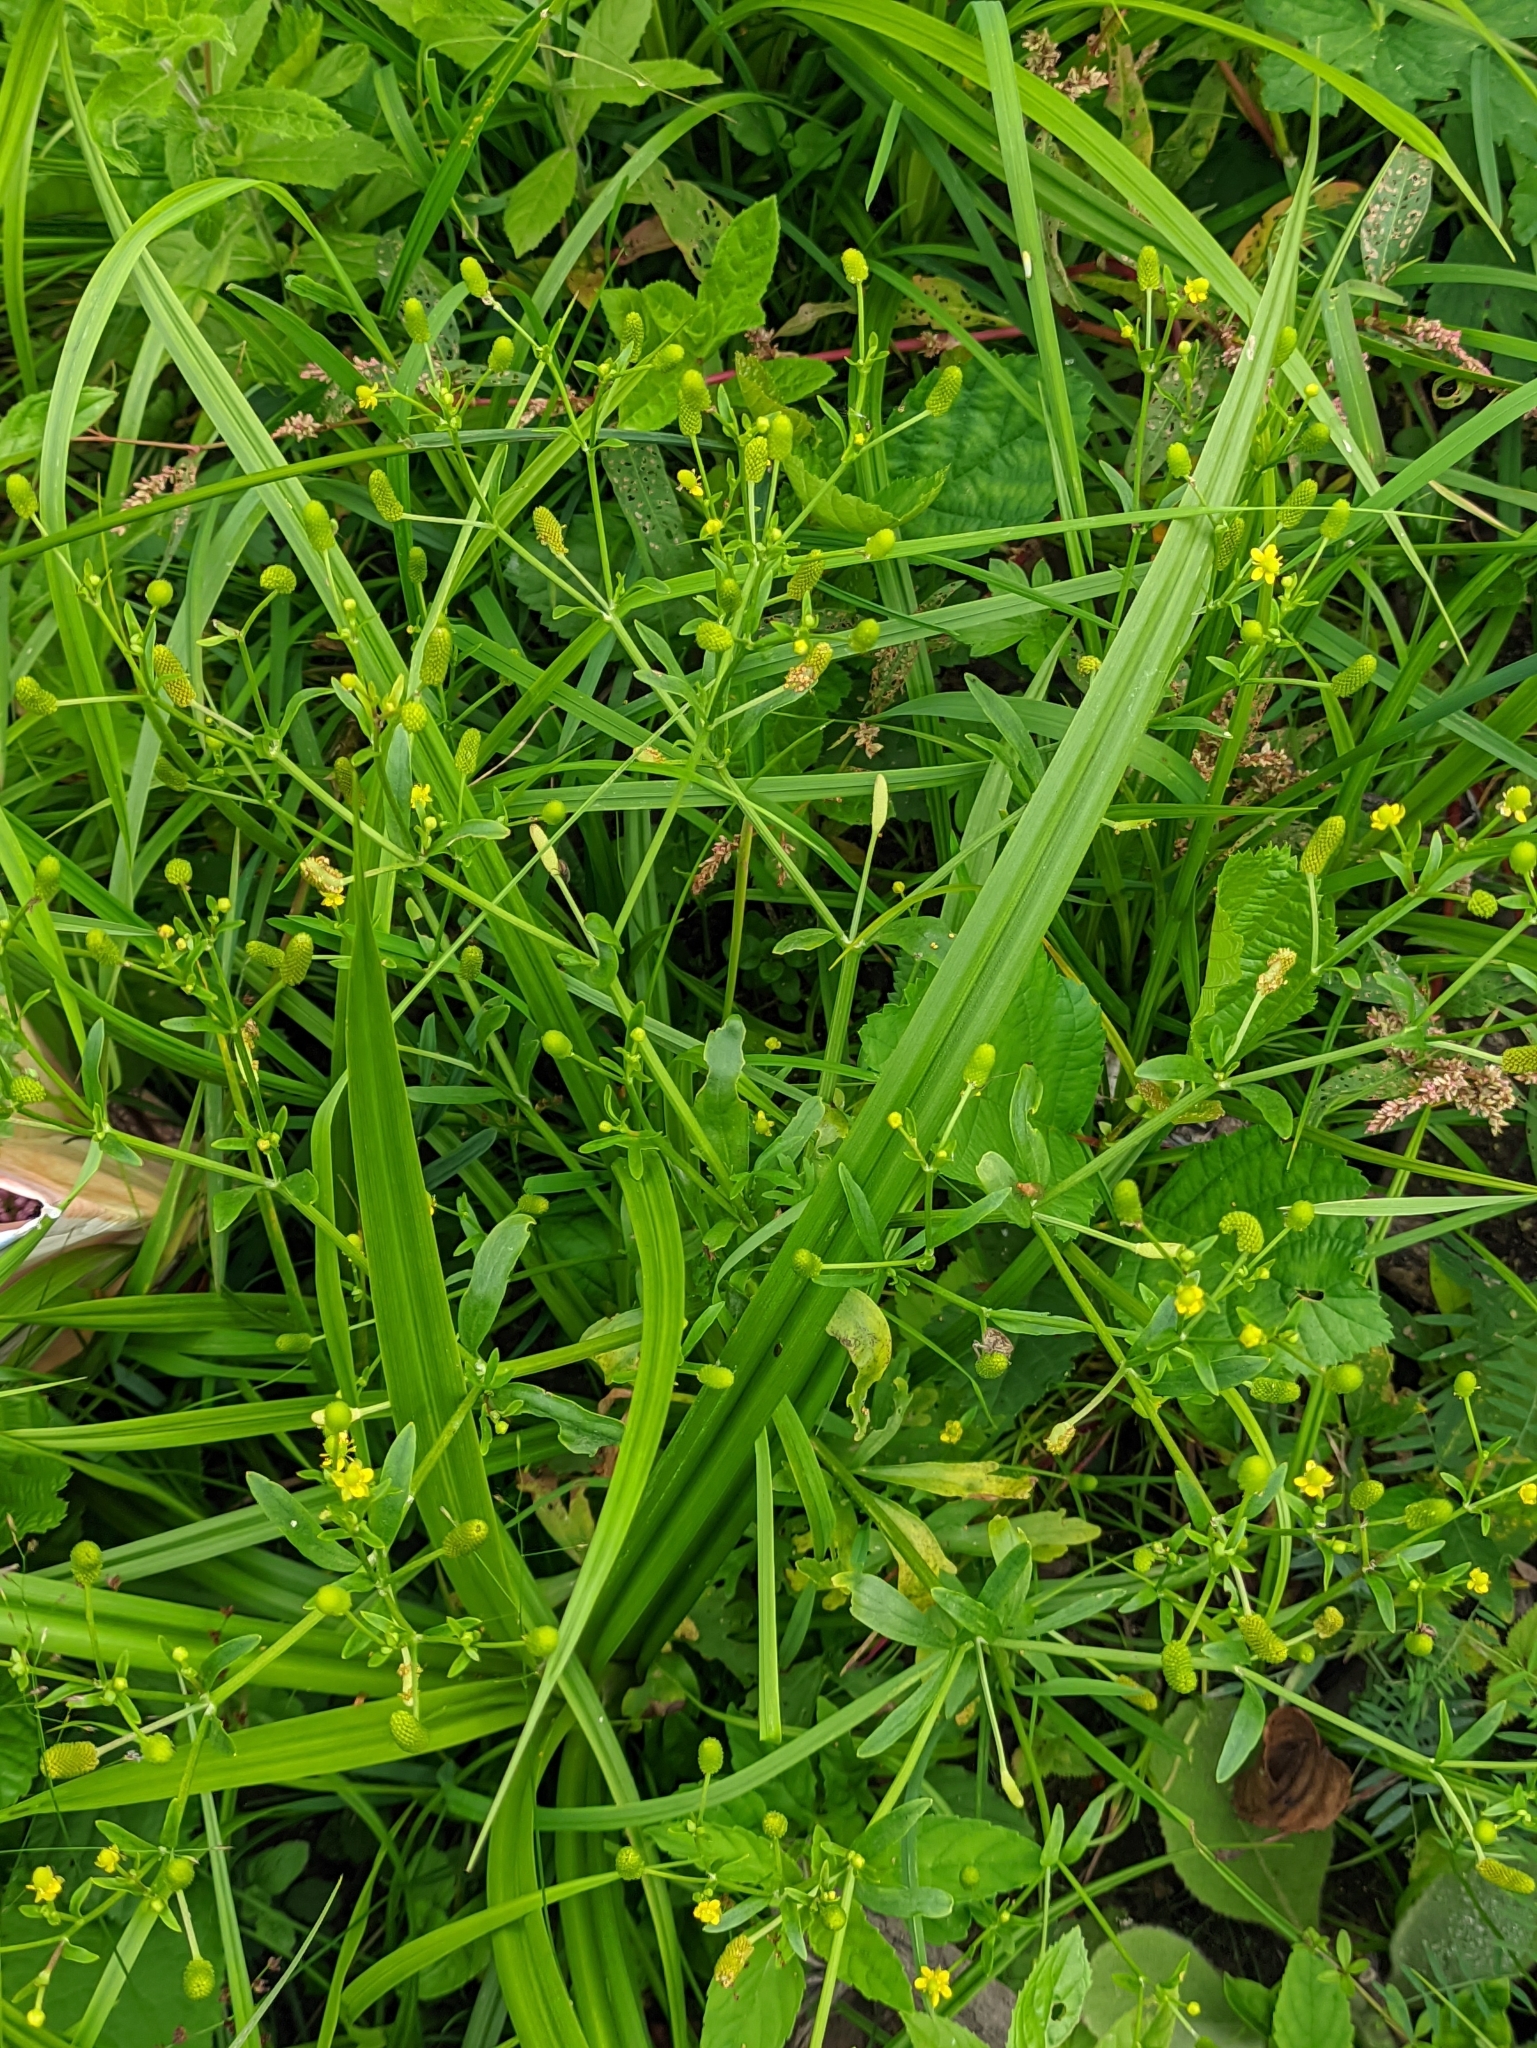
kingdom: Plantae
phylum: Tracheophyta
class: Magnoliopsida
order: Ranunculales
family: Ranunculaceae
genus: Ranunculus
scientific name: Ranunculus sceleratus
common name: Celery-leaved buttercup
